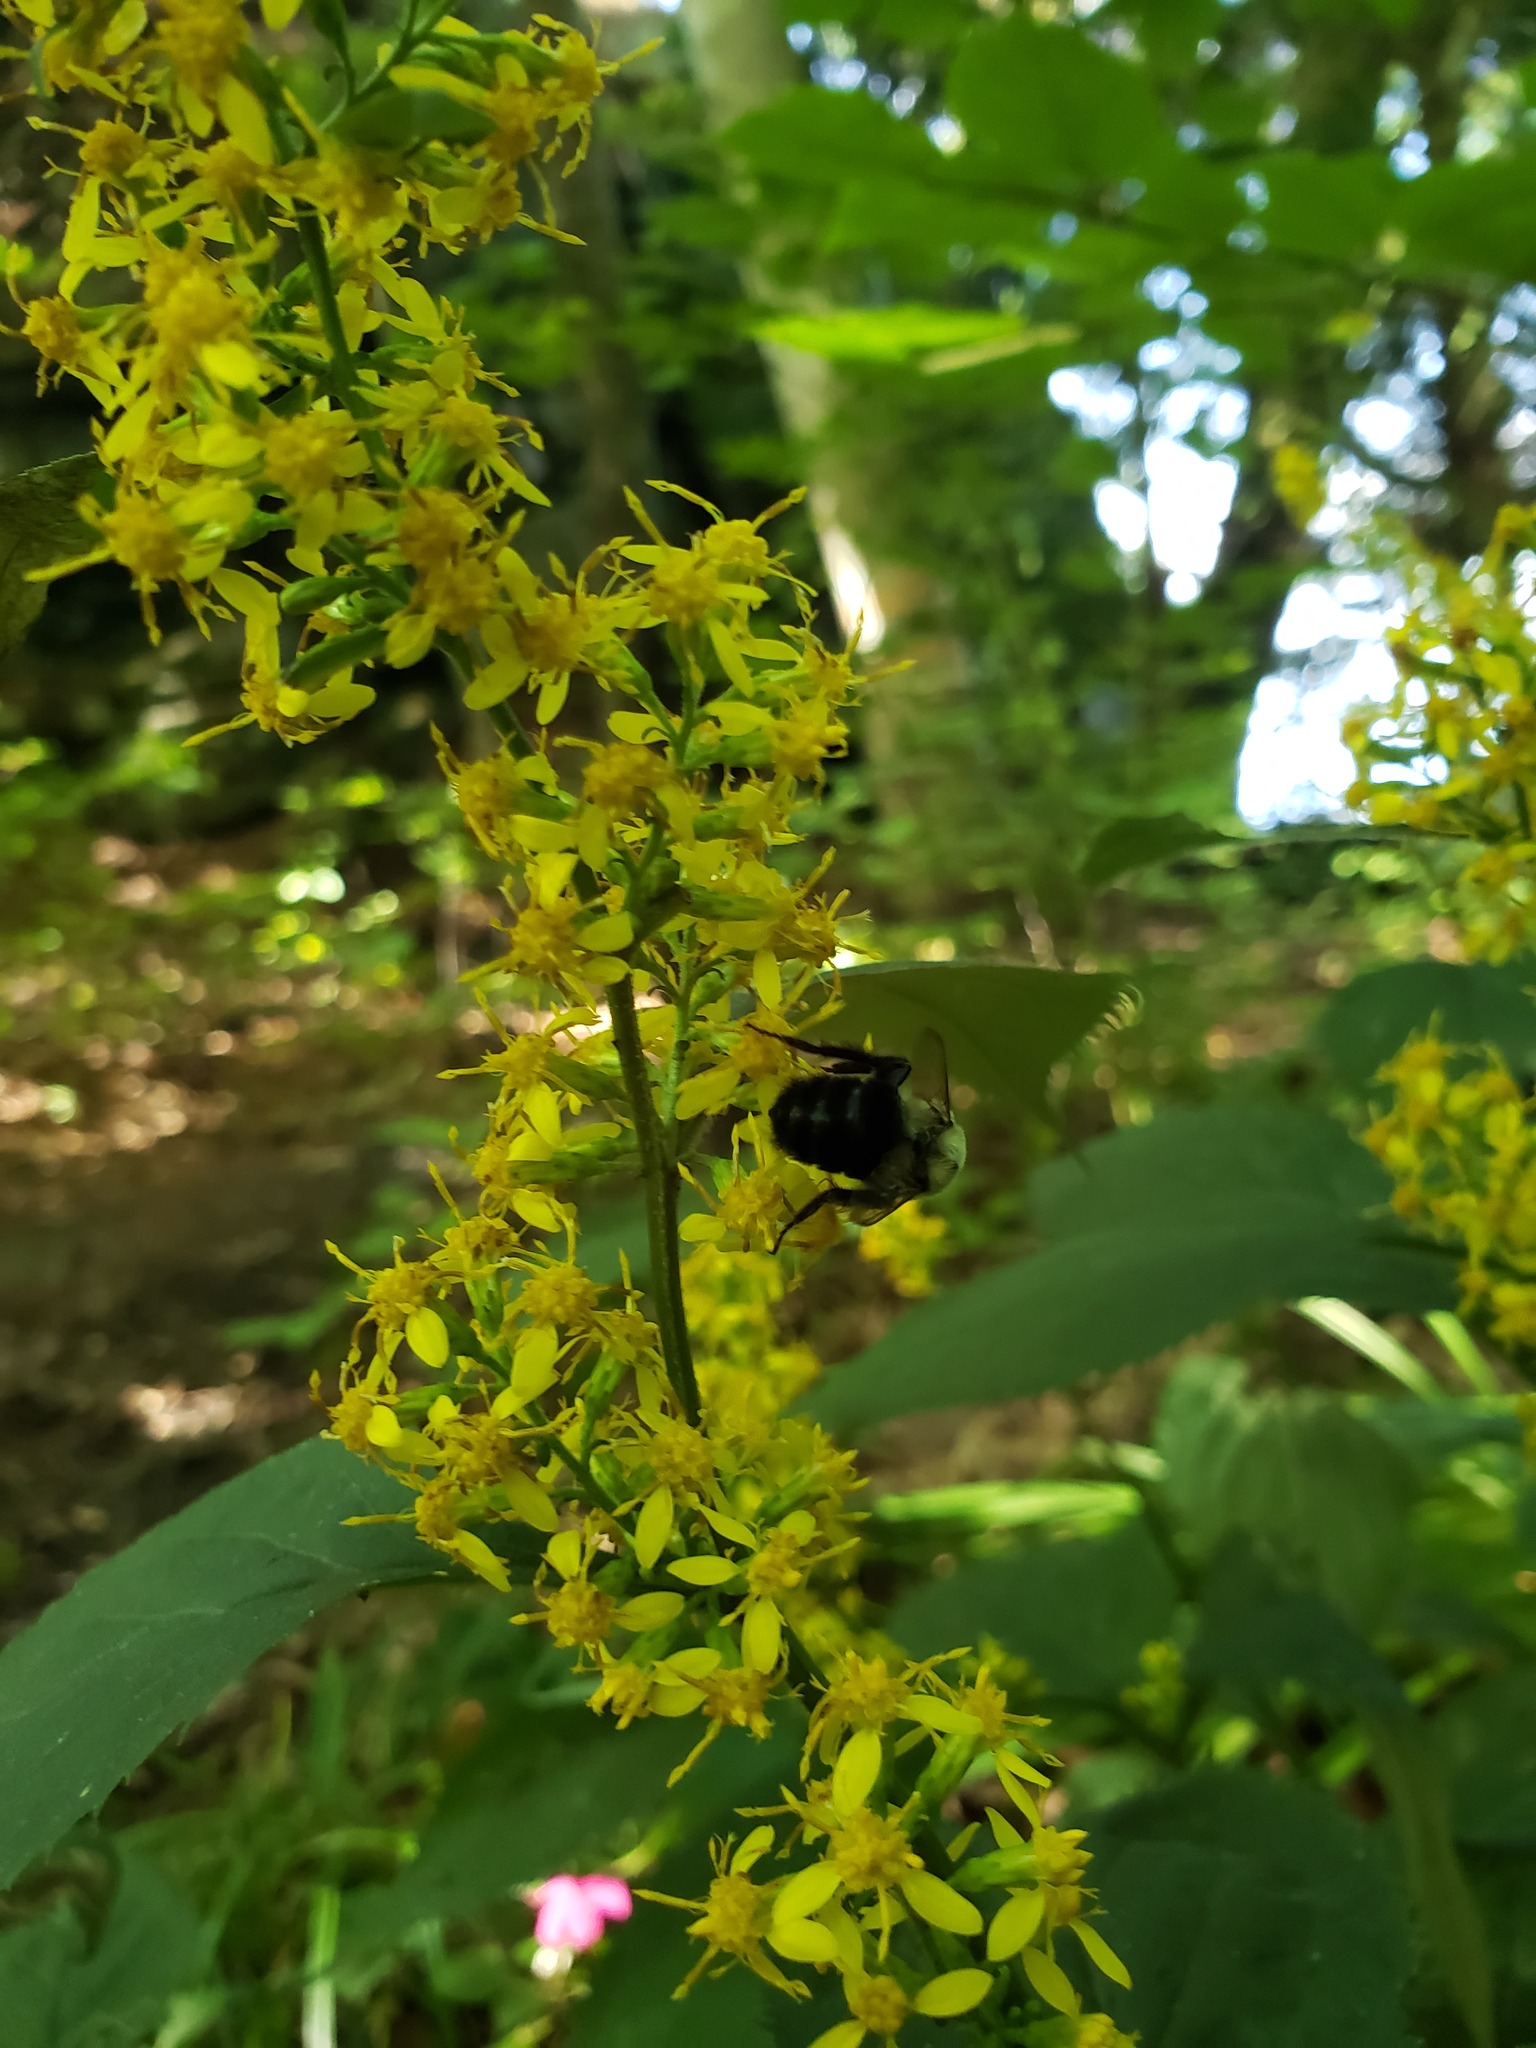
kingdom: Animalia
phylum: Arthropoda
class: Insecta
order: Hymenoptera
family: Apidae
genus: Bombus
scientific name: Bombus impatiens
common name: Common eastern bumble bee
